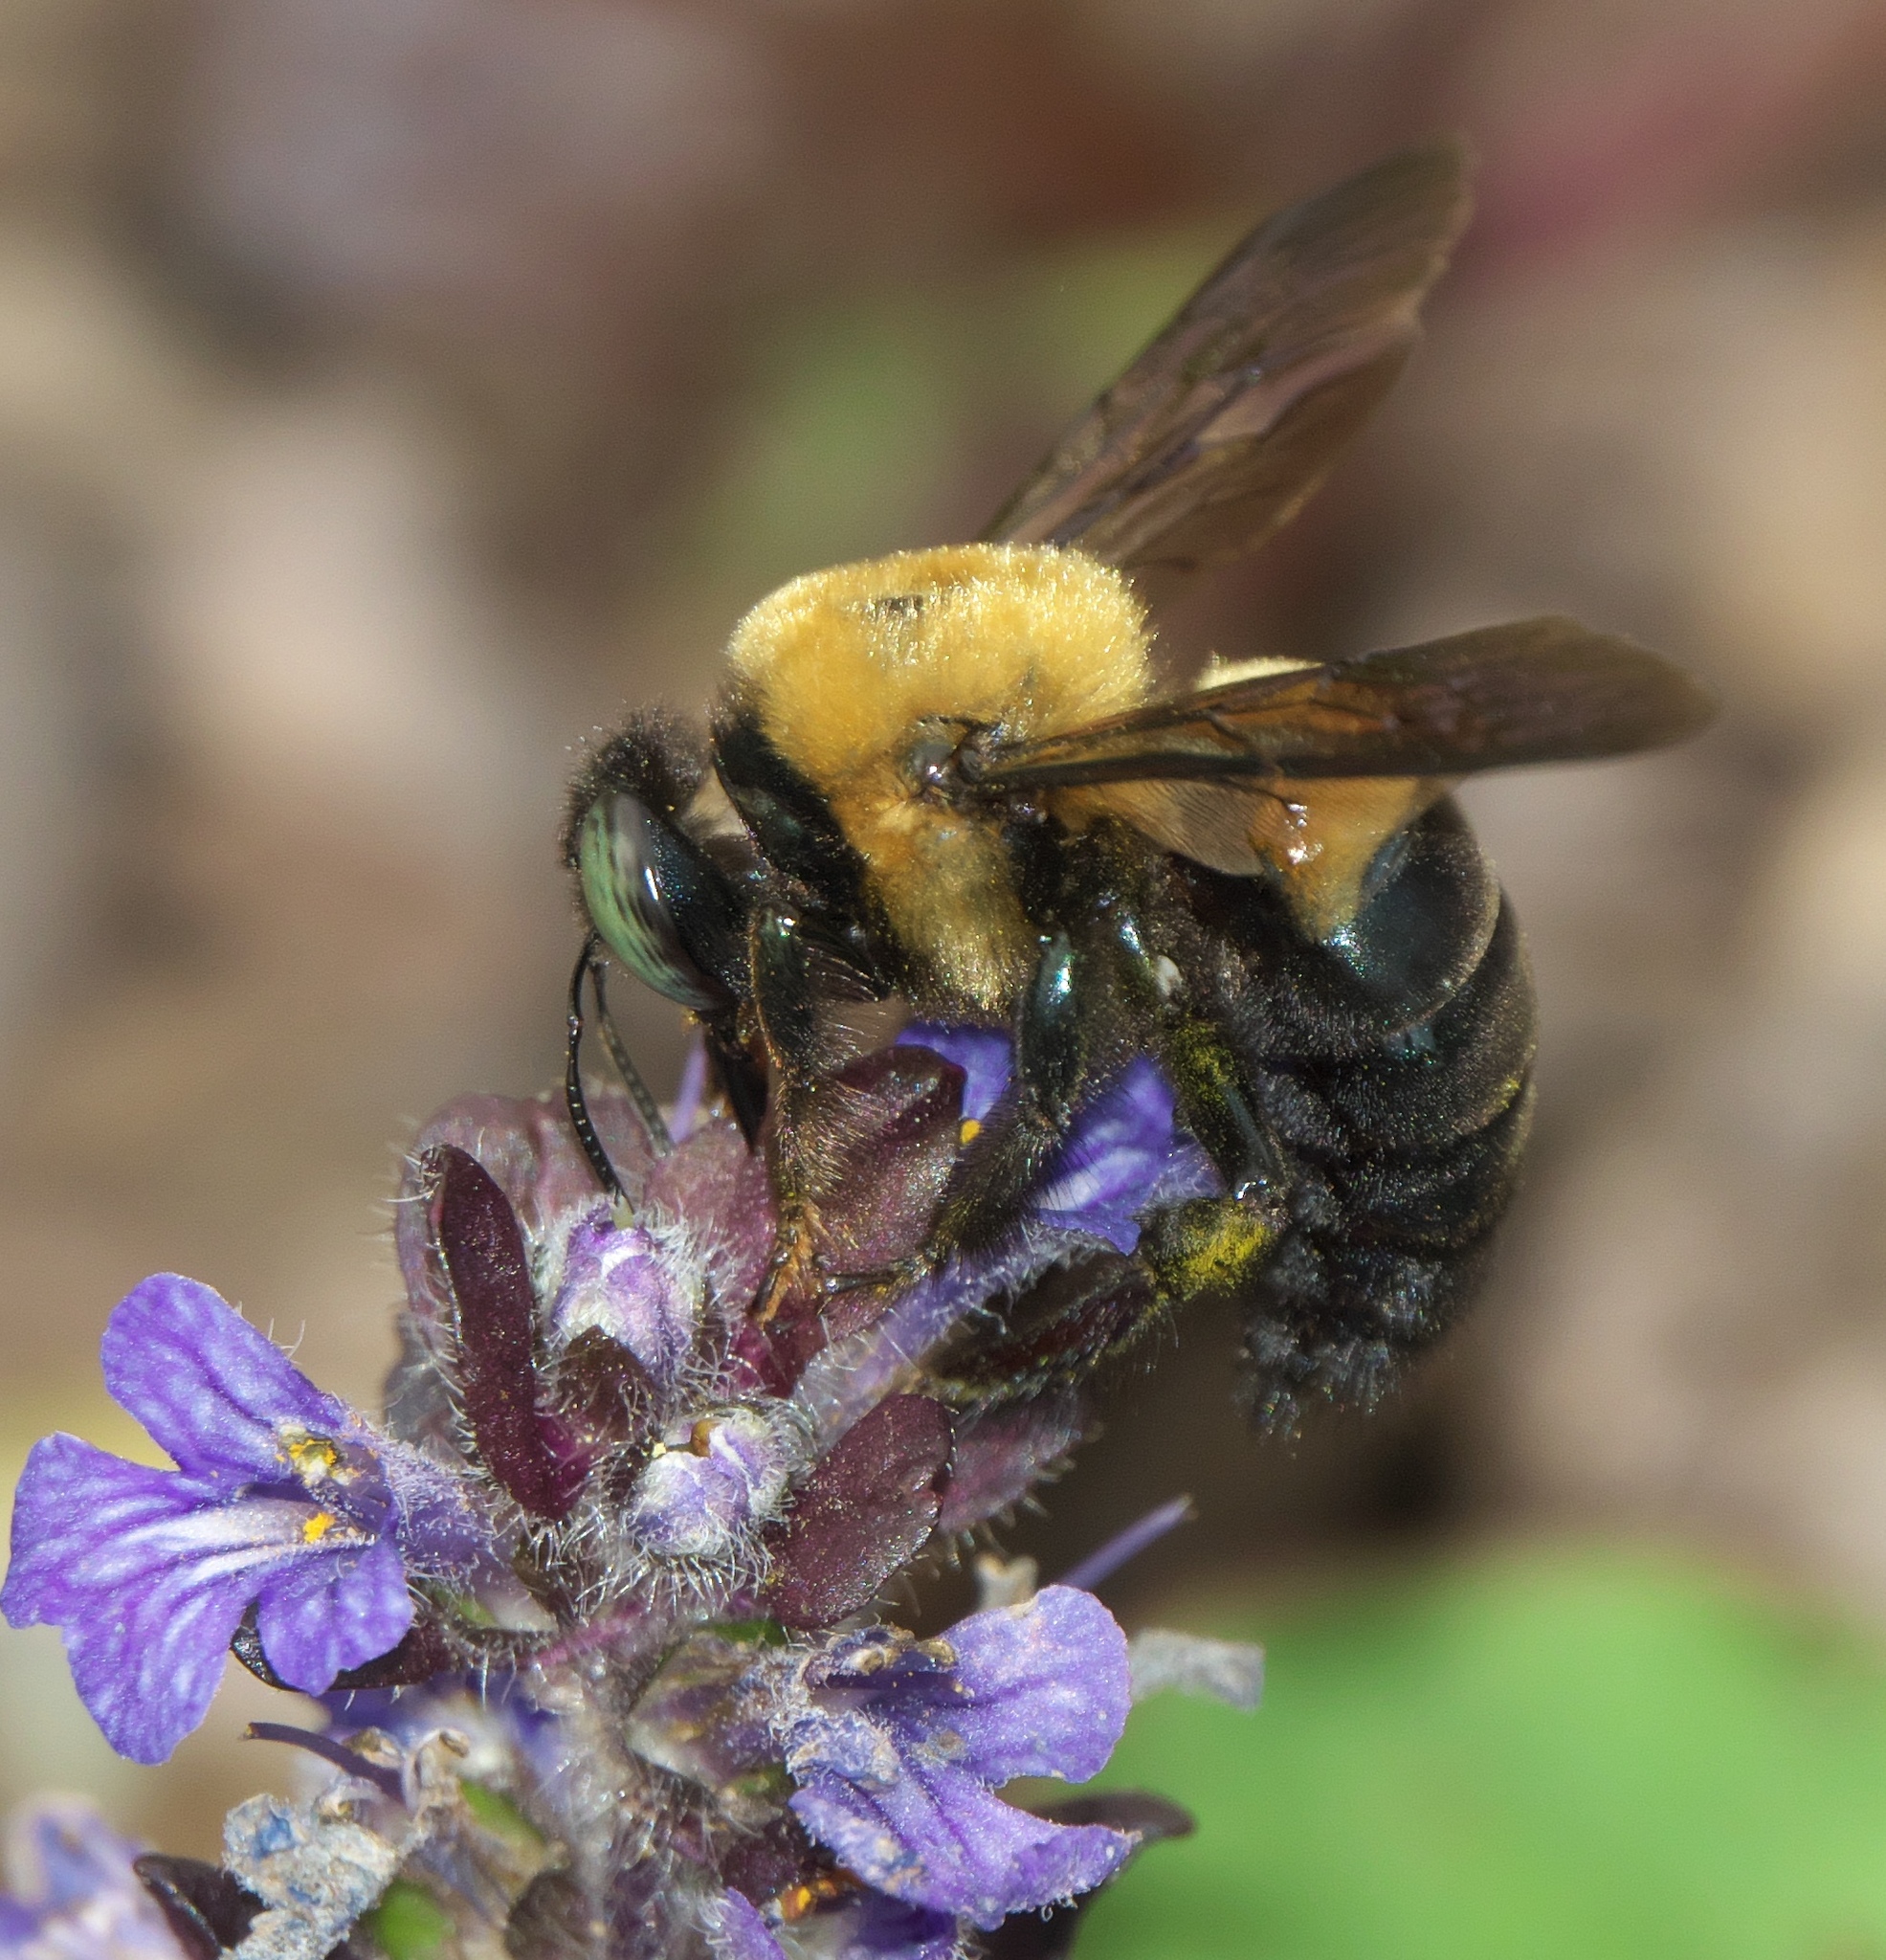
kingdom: Animalia
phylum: Arthropoda
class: Insecta
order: Hymenoptera
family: Apidae
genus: Xylocopa
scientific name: Xylocopa virginica
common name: Carpenter bee
